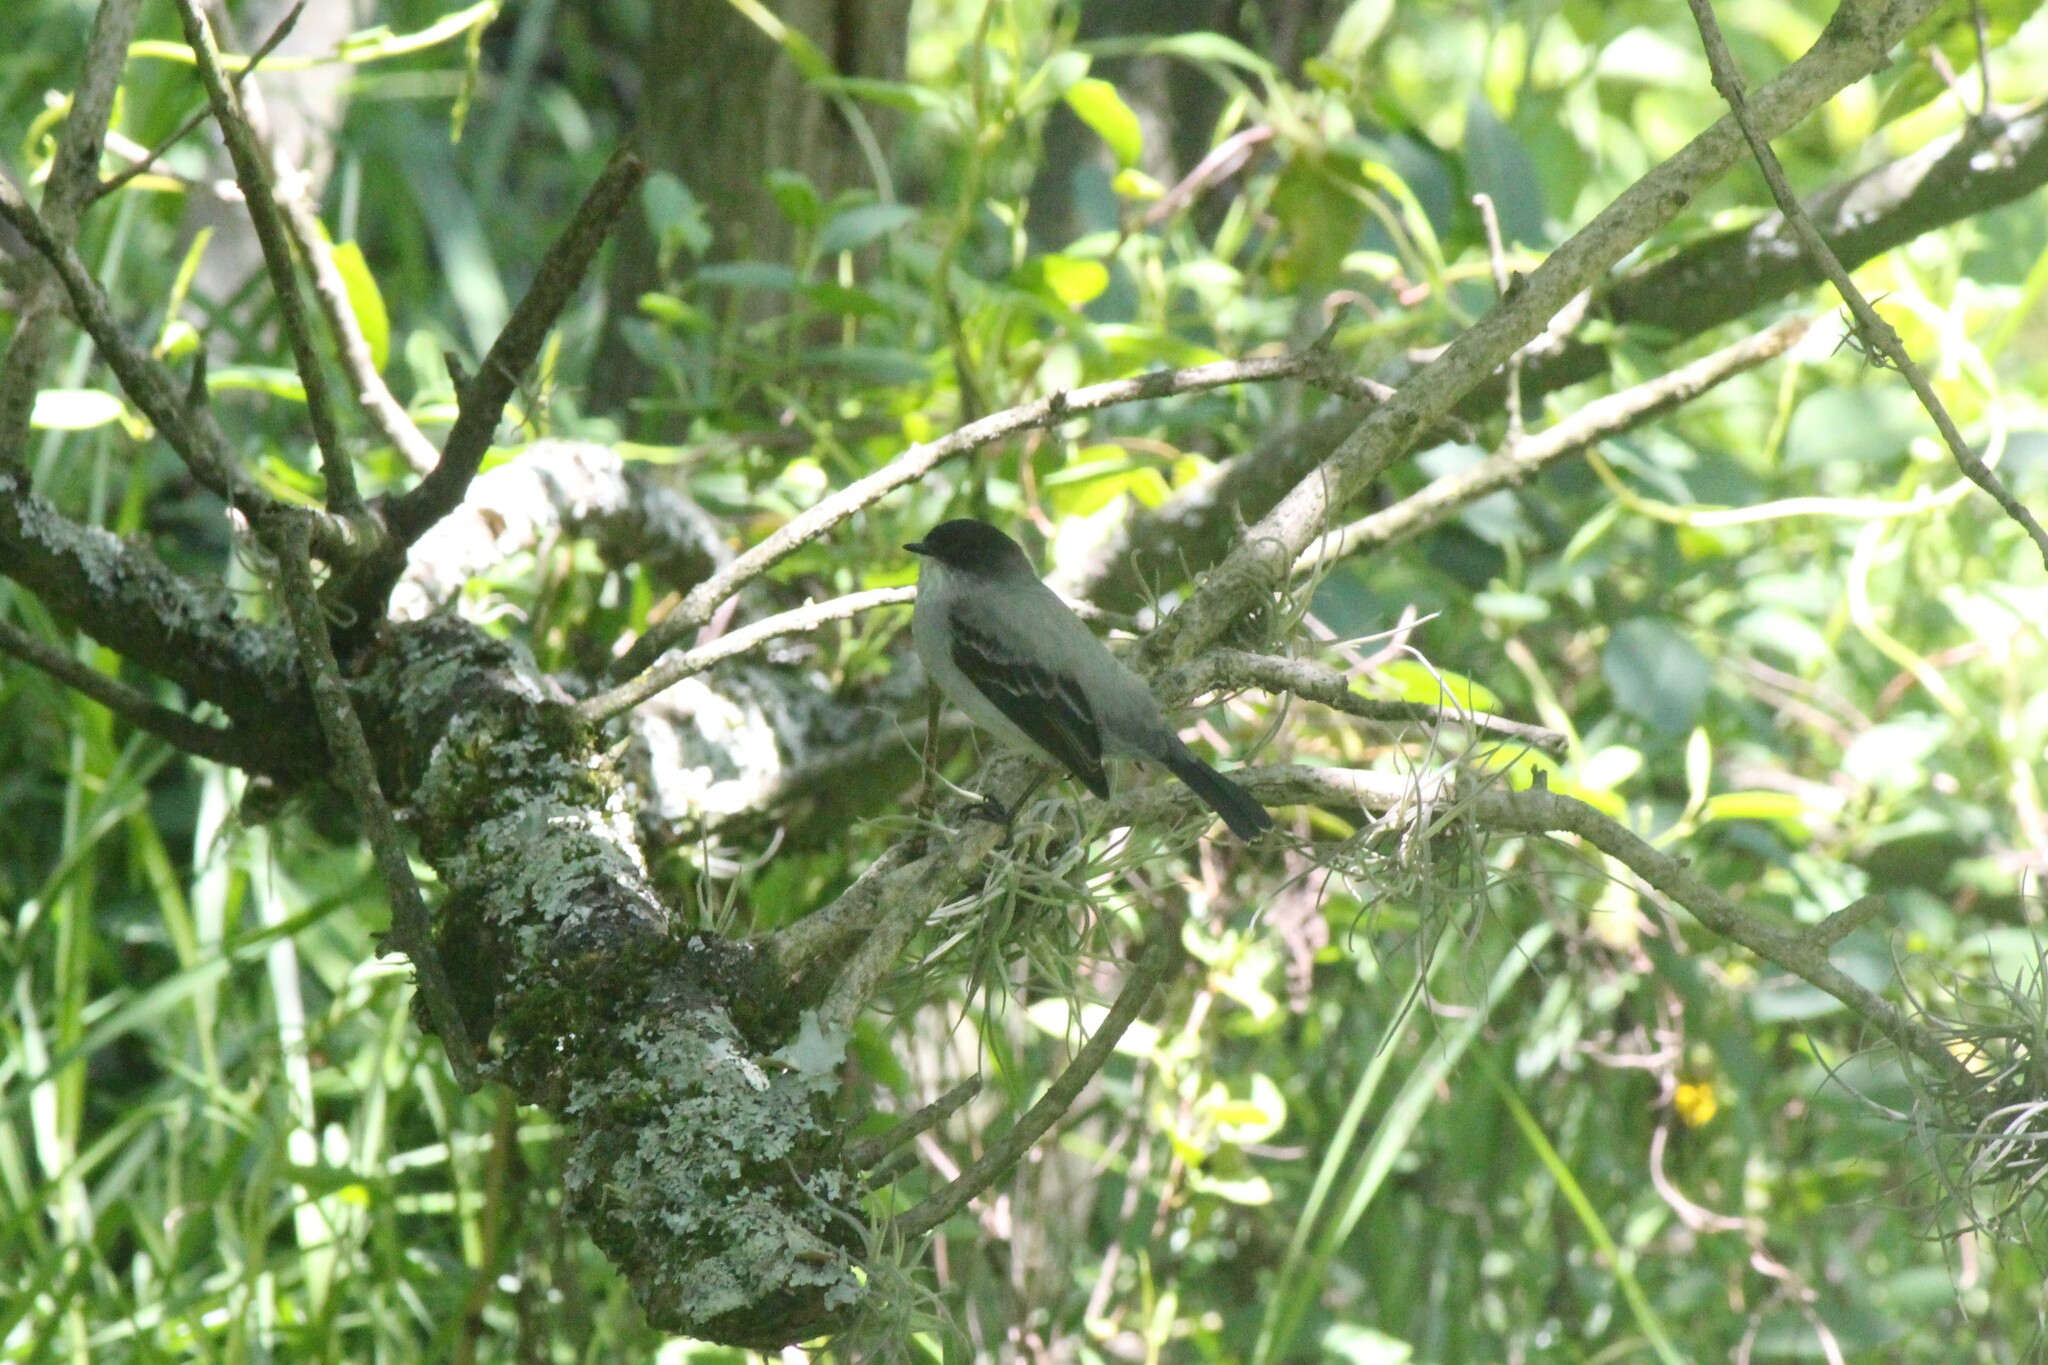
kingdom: Animalia
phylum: Chordata
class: Aves
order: Passeriformes
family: Tyrannidae
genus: Serpophaga
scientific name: Serpophaga cinerea
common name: Torrent tyrannulet
